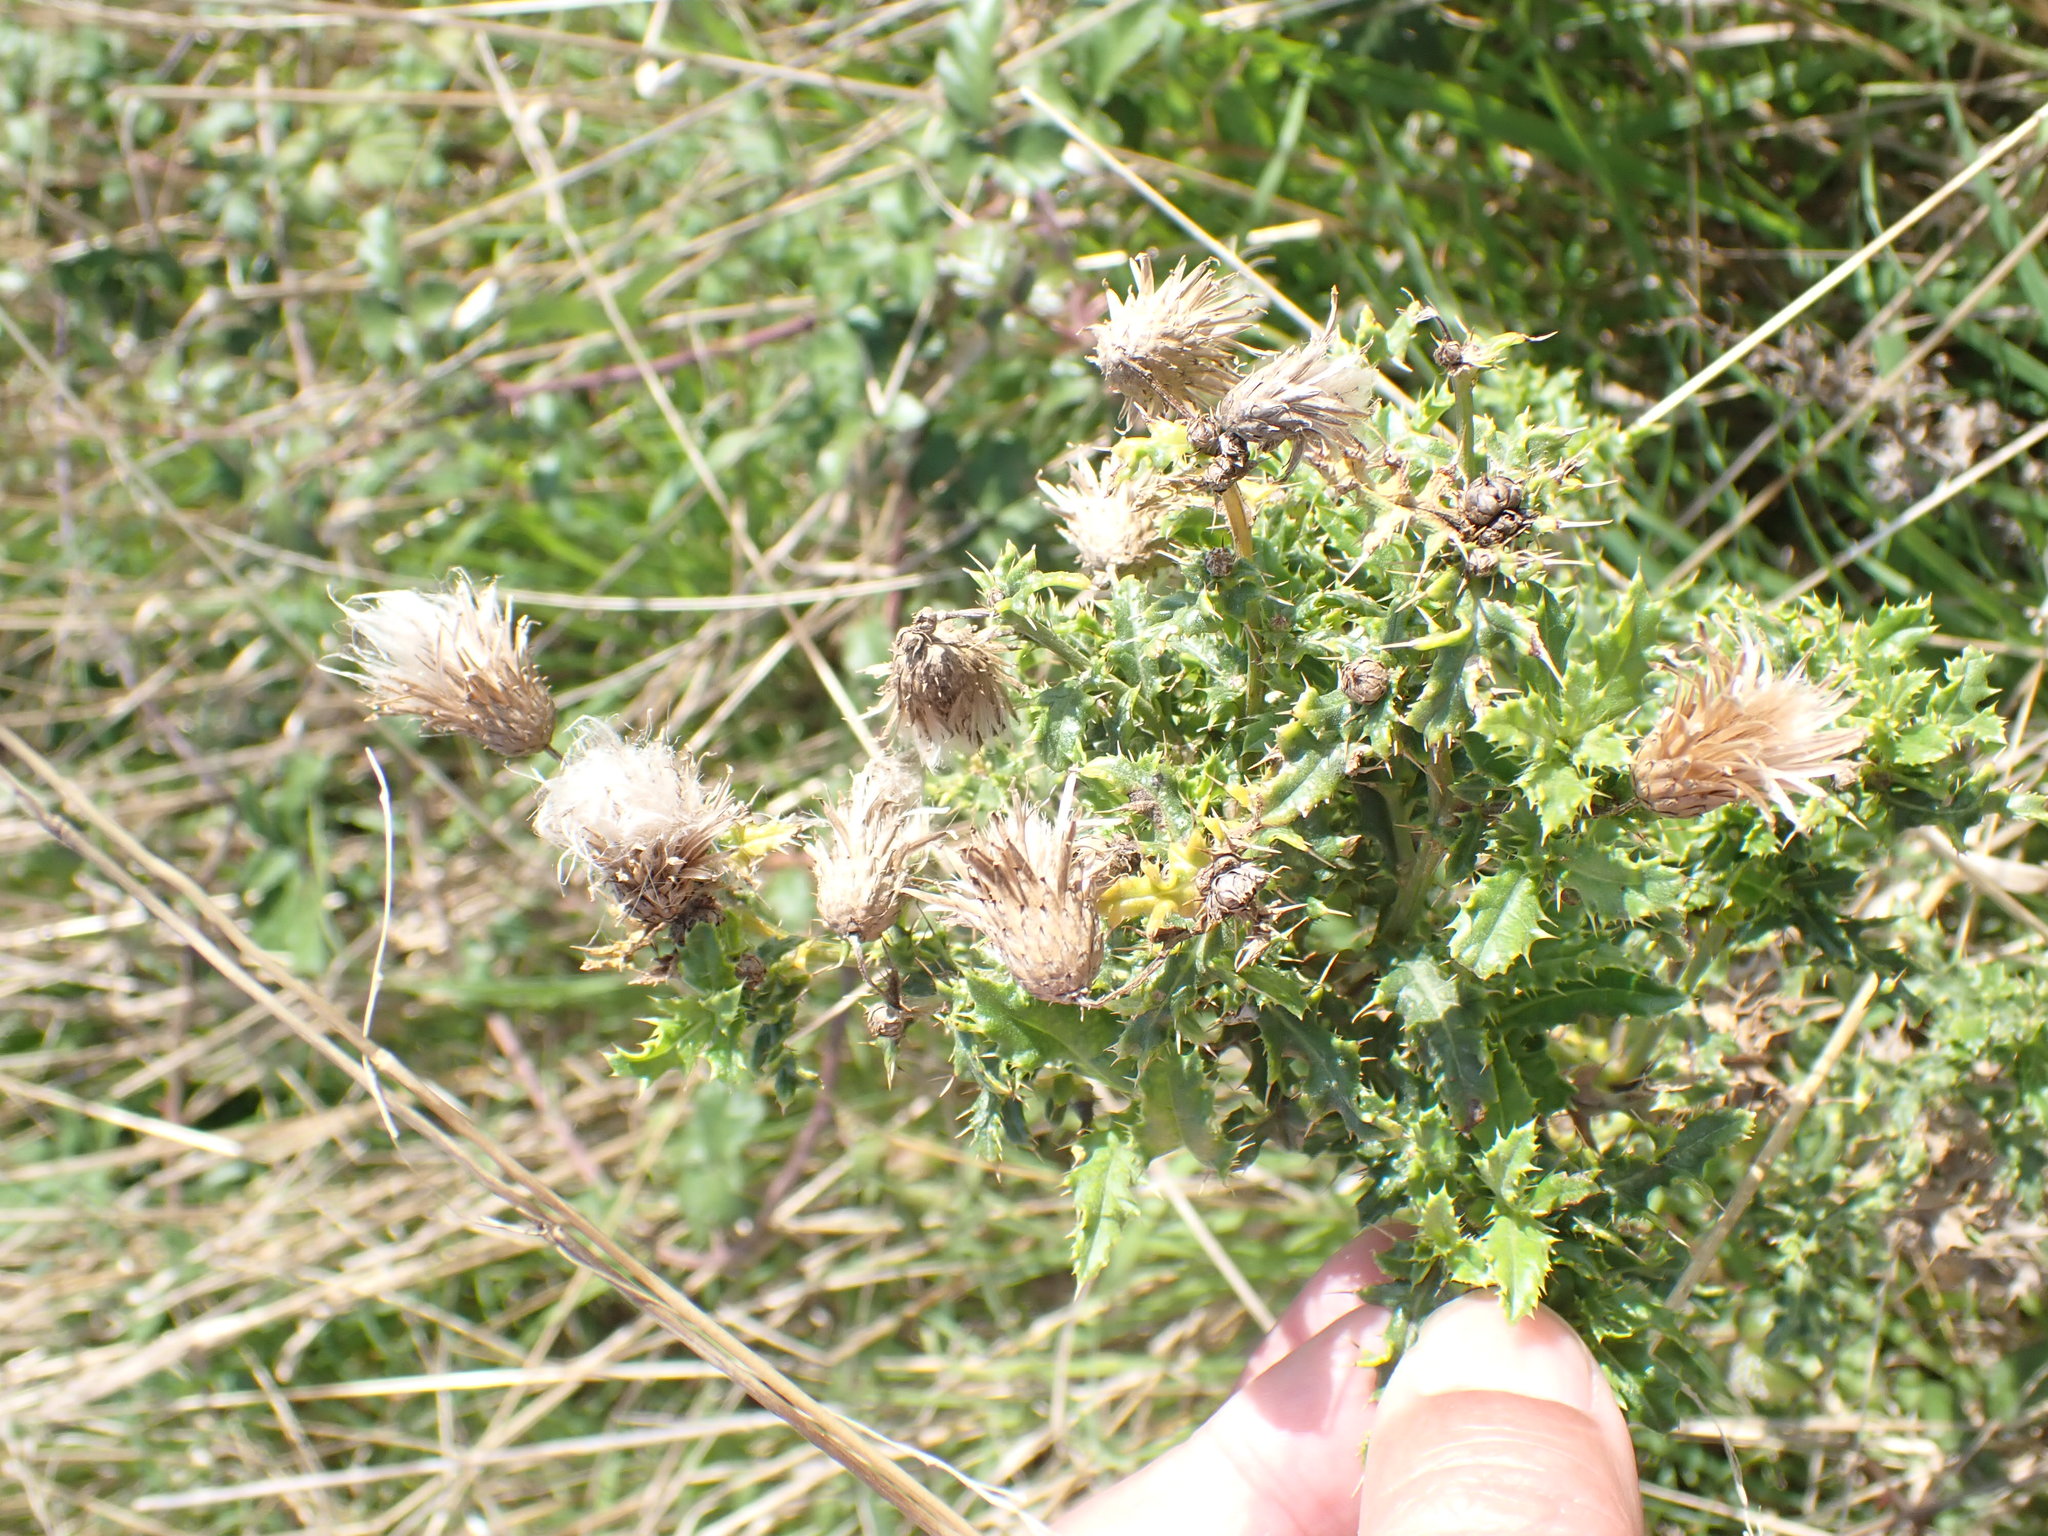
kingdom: Plantae
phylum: Tracheophyta
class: Magnoliopsida
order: Asterales
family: Asteraceae
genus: Cirsium
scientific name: Cirsium arvense
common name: Creeping thistle
